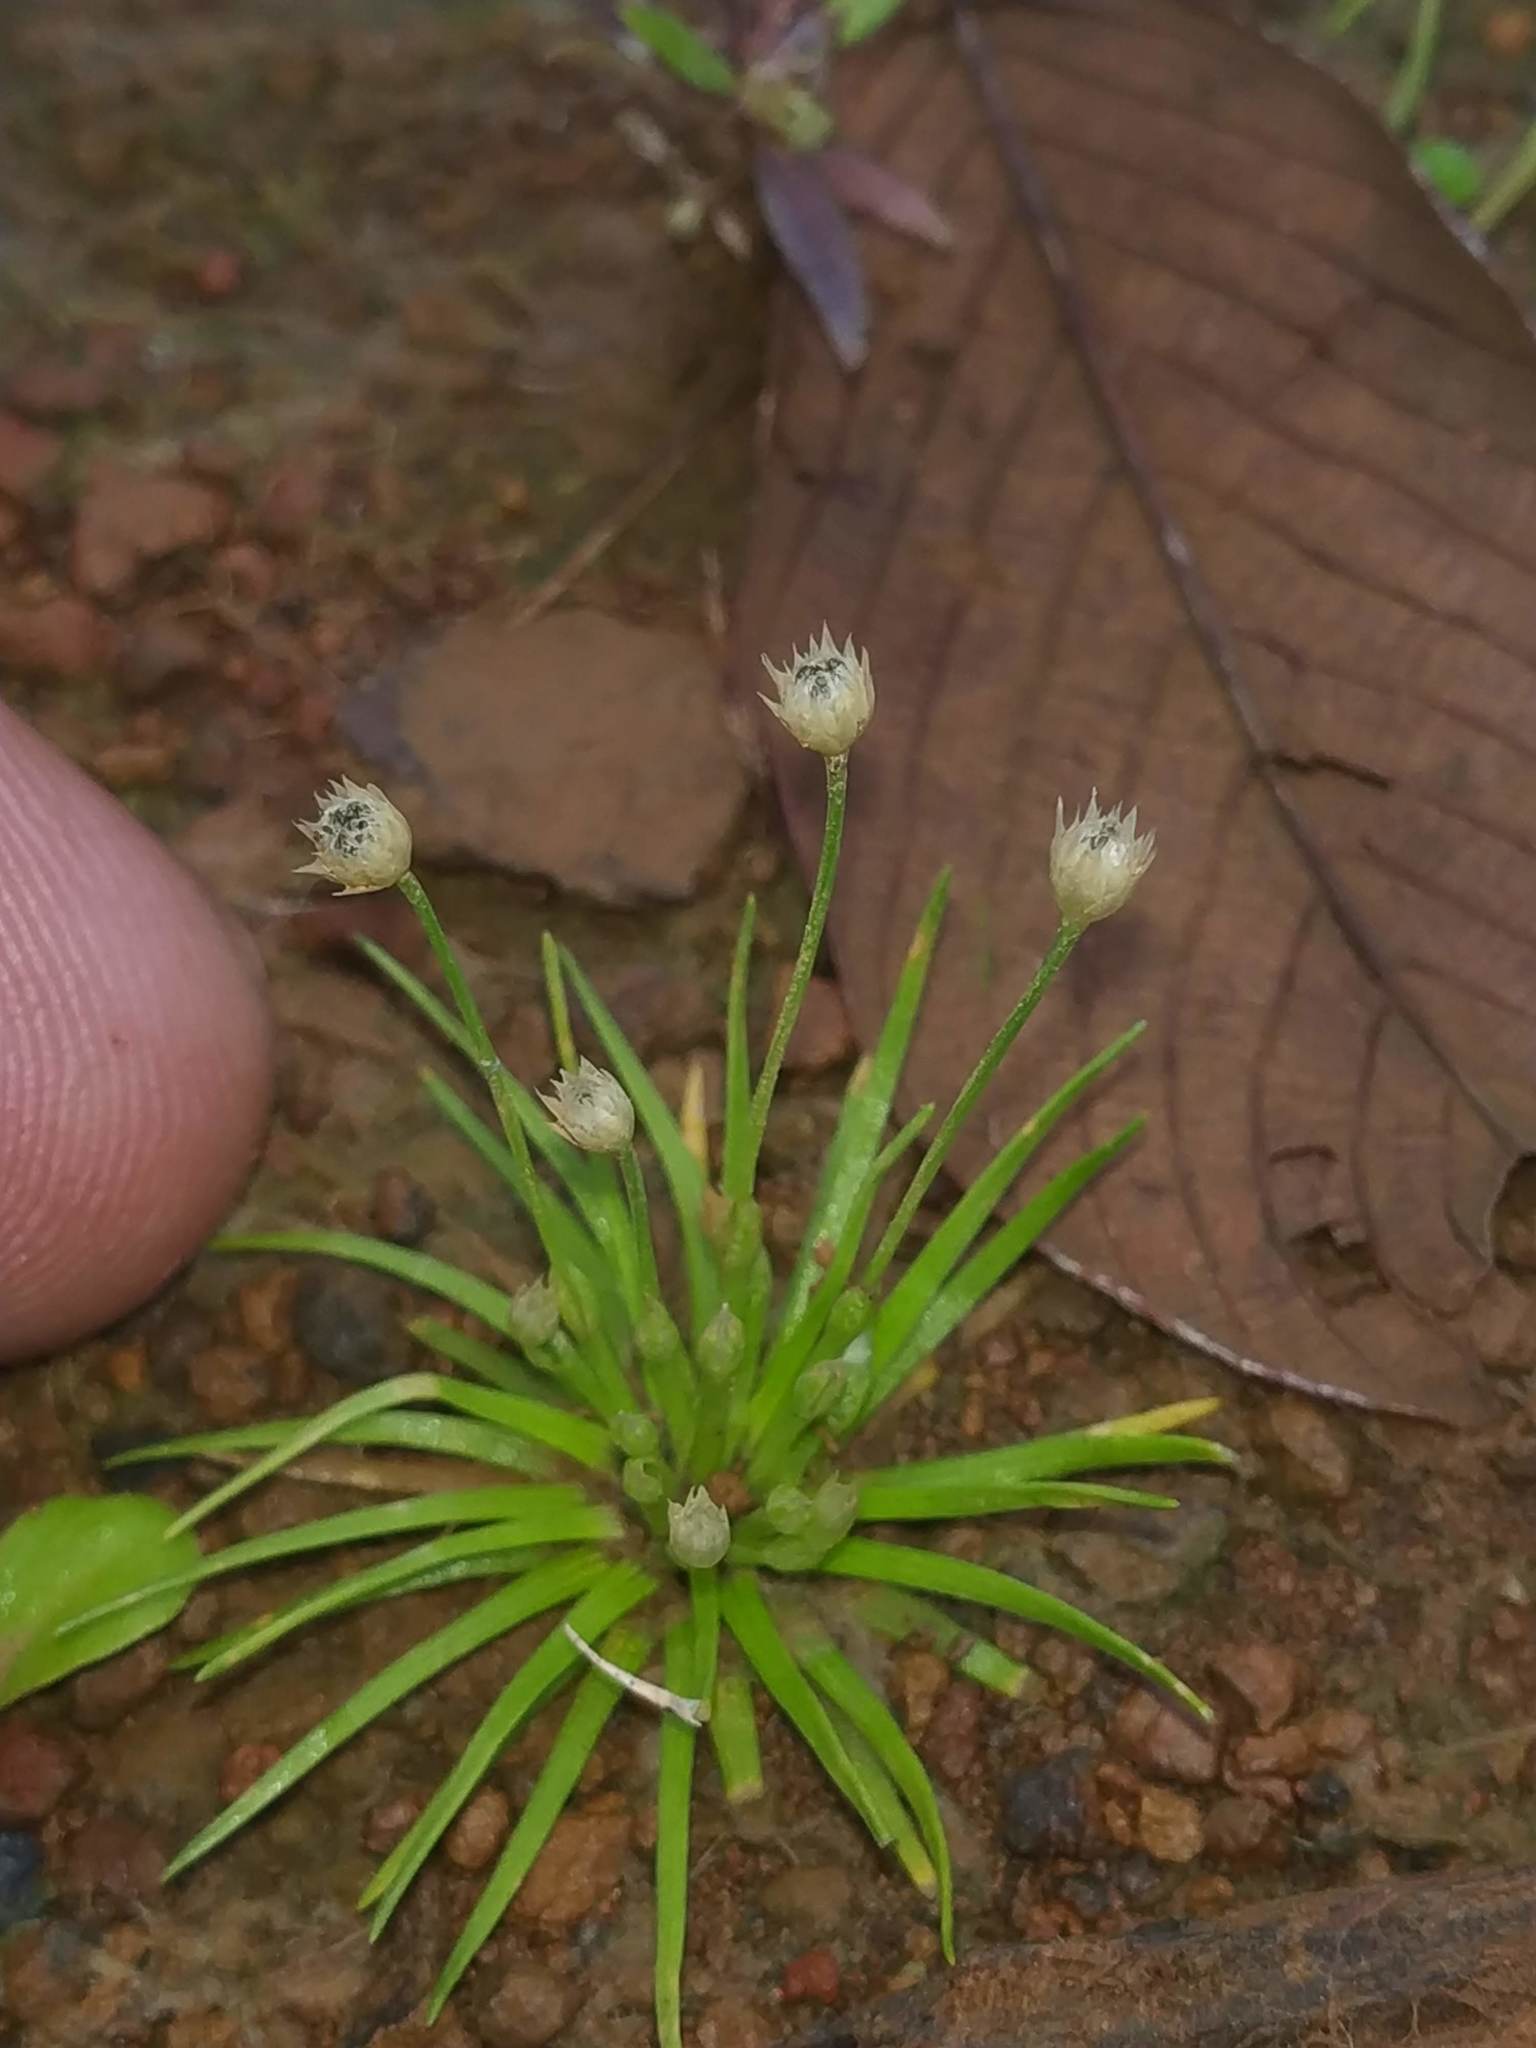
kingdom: Plantae
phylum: Tracheophyta
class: Liliopsida
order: Poales
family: Eriocaulaceae
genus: Eriocaulon
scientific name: Eriocaulon minutum
